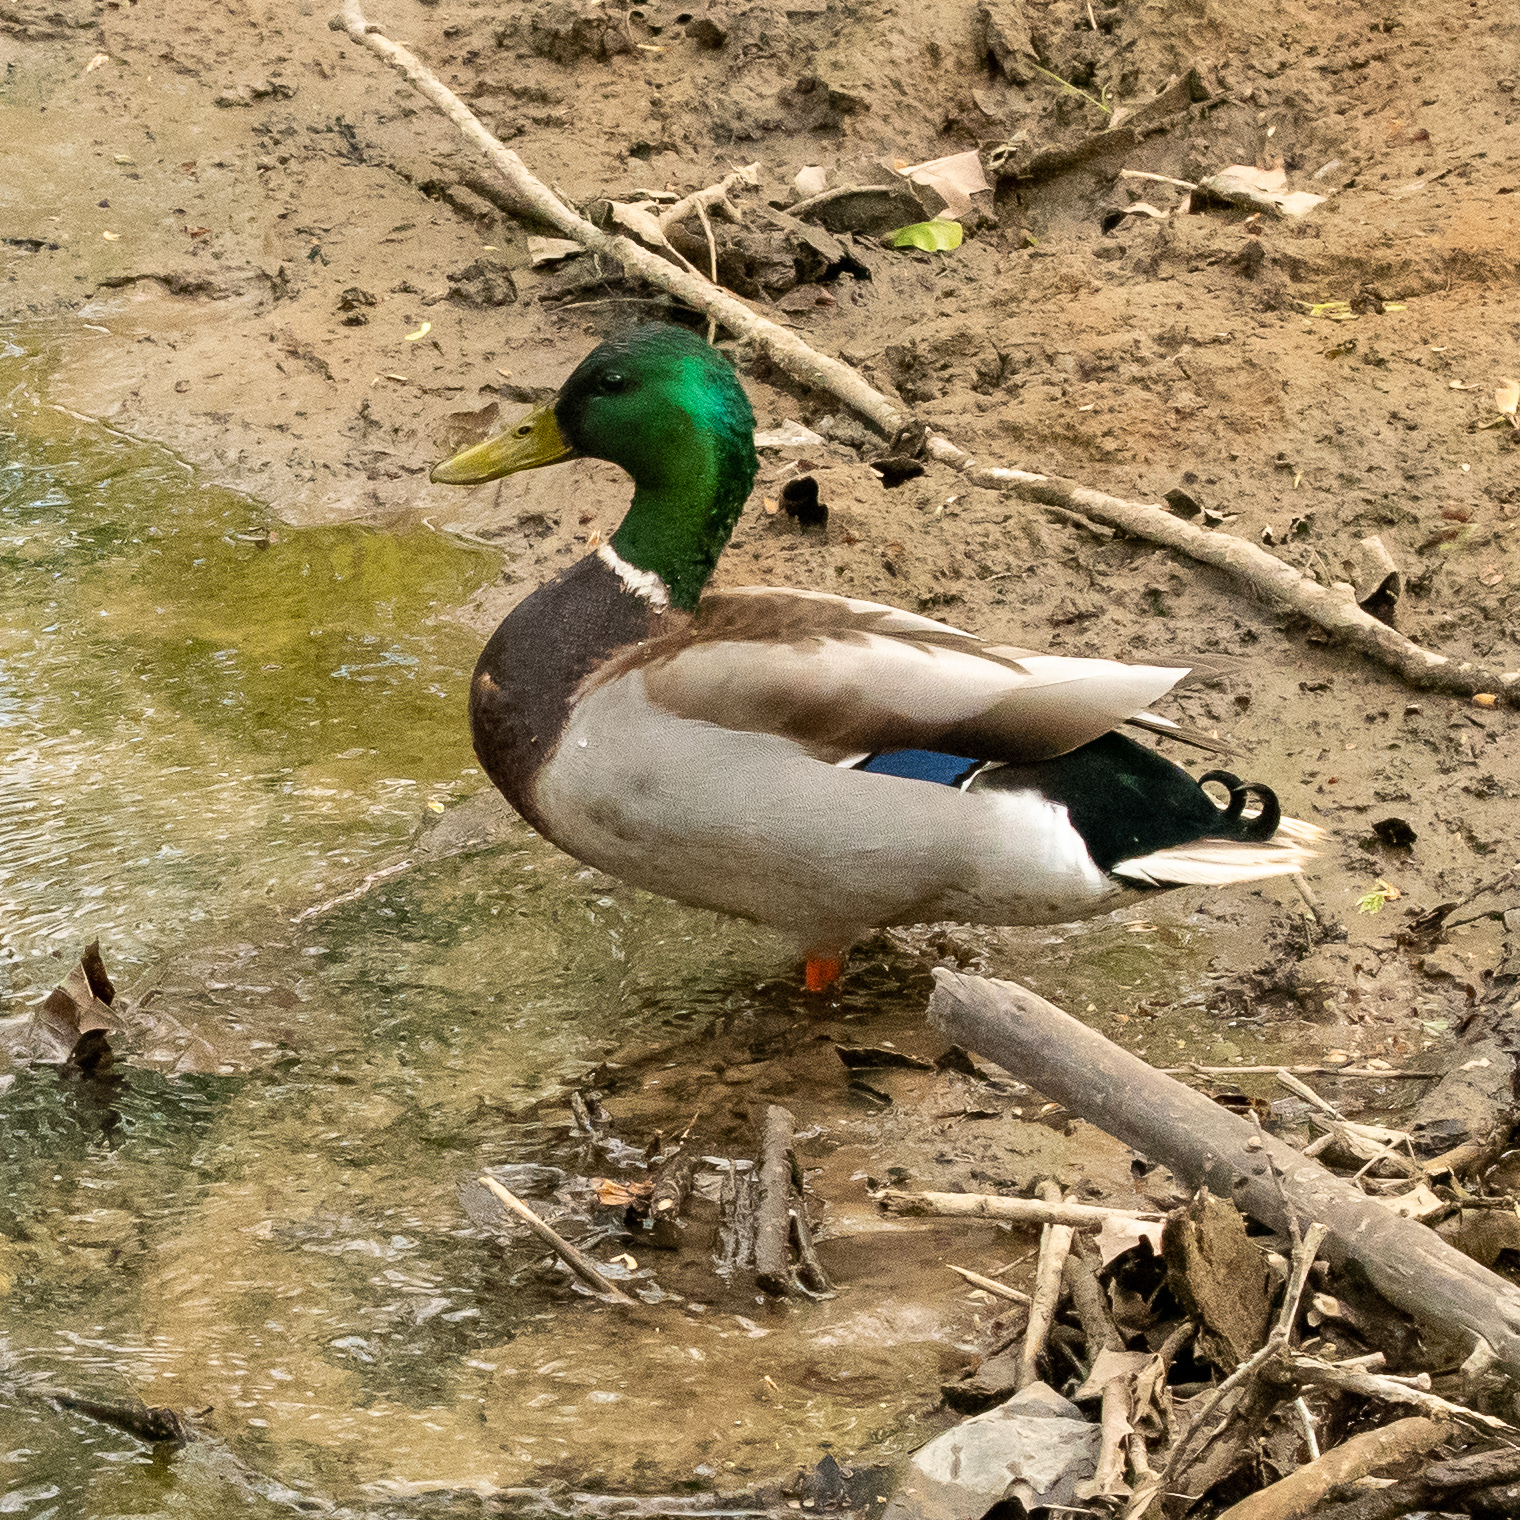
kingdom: Animalia
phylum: Chordata
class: Aves
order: Anseriformes
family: Anatidae
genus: Anas
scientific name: Anas platyrhynchos
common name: Mallard
